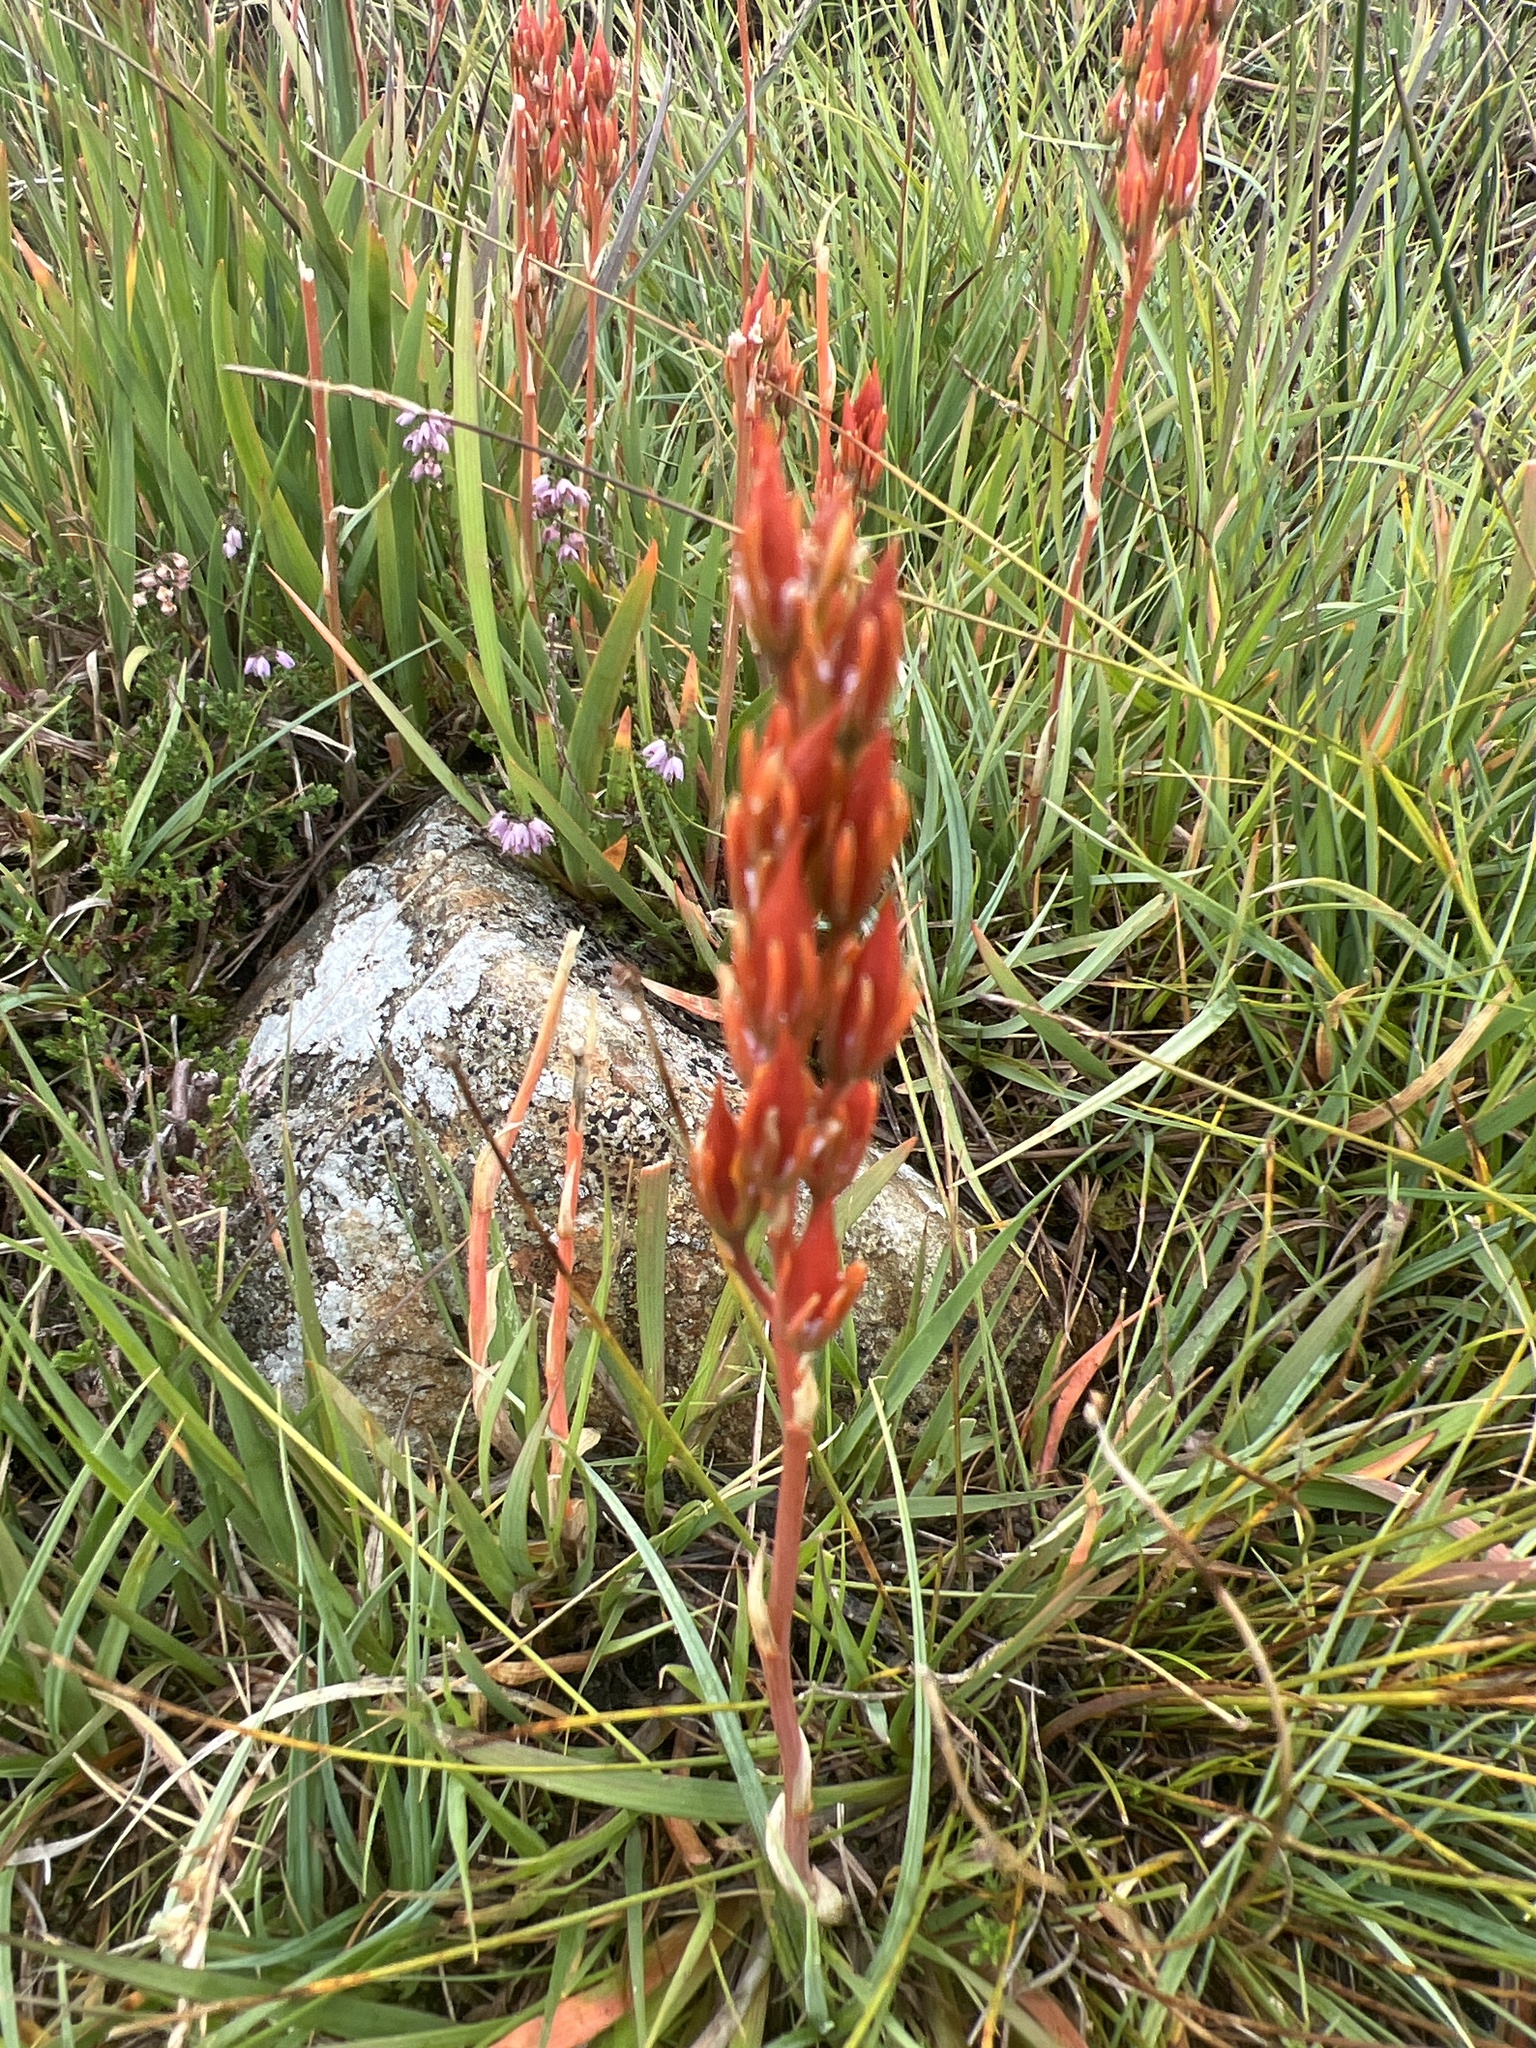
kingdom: Plantae
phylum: Tracheophyta
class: Liliopsida
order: Dioscoreales
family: Nartheciaceae
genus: Narthecium
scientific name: Narthecium ossifragum
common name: Bog asphodel
